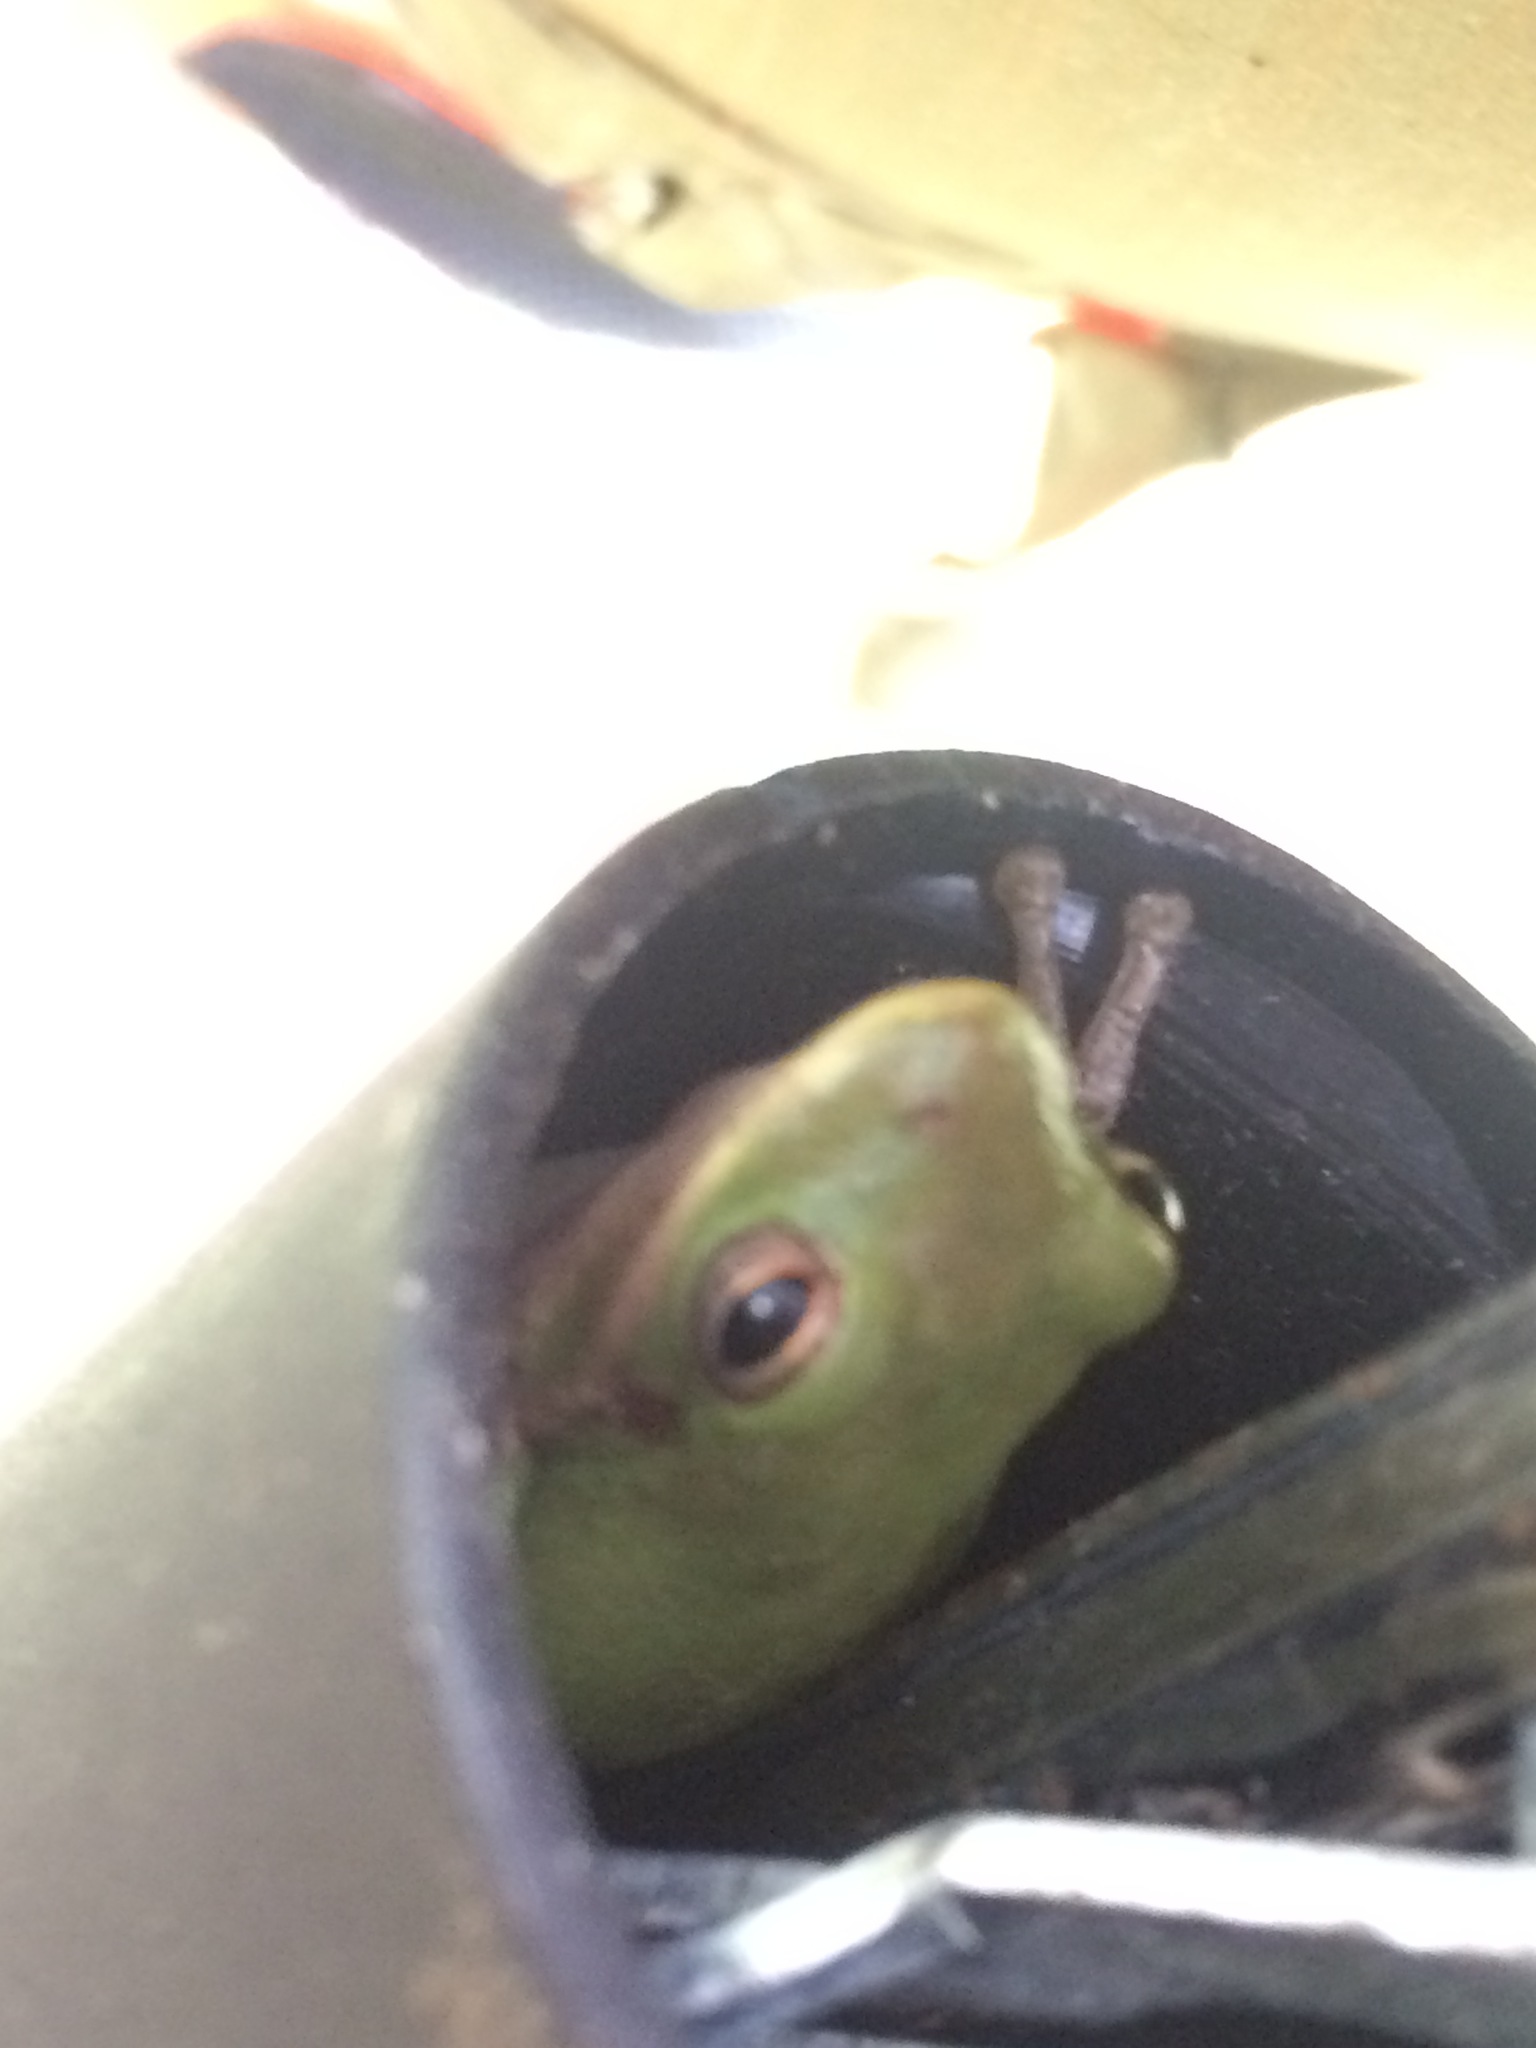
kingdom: Animalia
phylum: Chordata
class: Amphibia
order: Anura
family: Hylidae
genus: Dryophytes
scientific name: Dryophytes squirellus
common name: Squirrel treefrog
